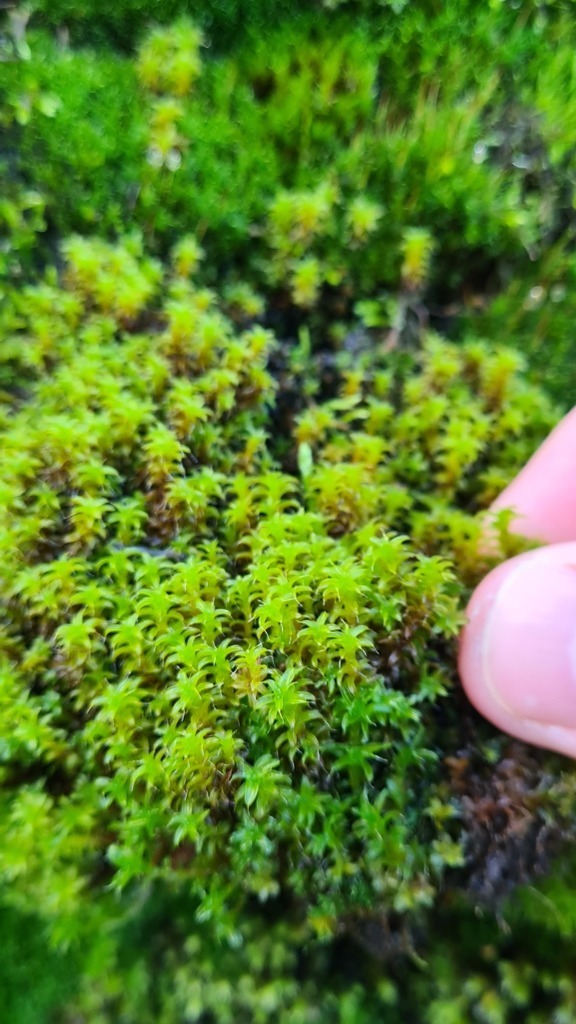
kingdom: Plantae
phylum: Bryophyta
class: Bryopsida
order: Pottiales
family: Pottiaceae
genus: Syntrichia
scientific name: Syntrichia ruralis
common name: Sidewalk screw moss
